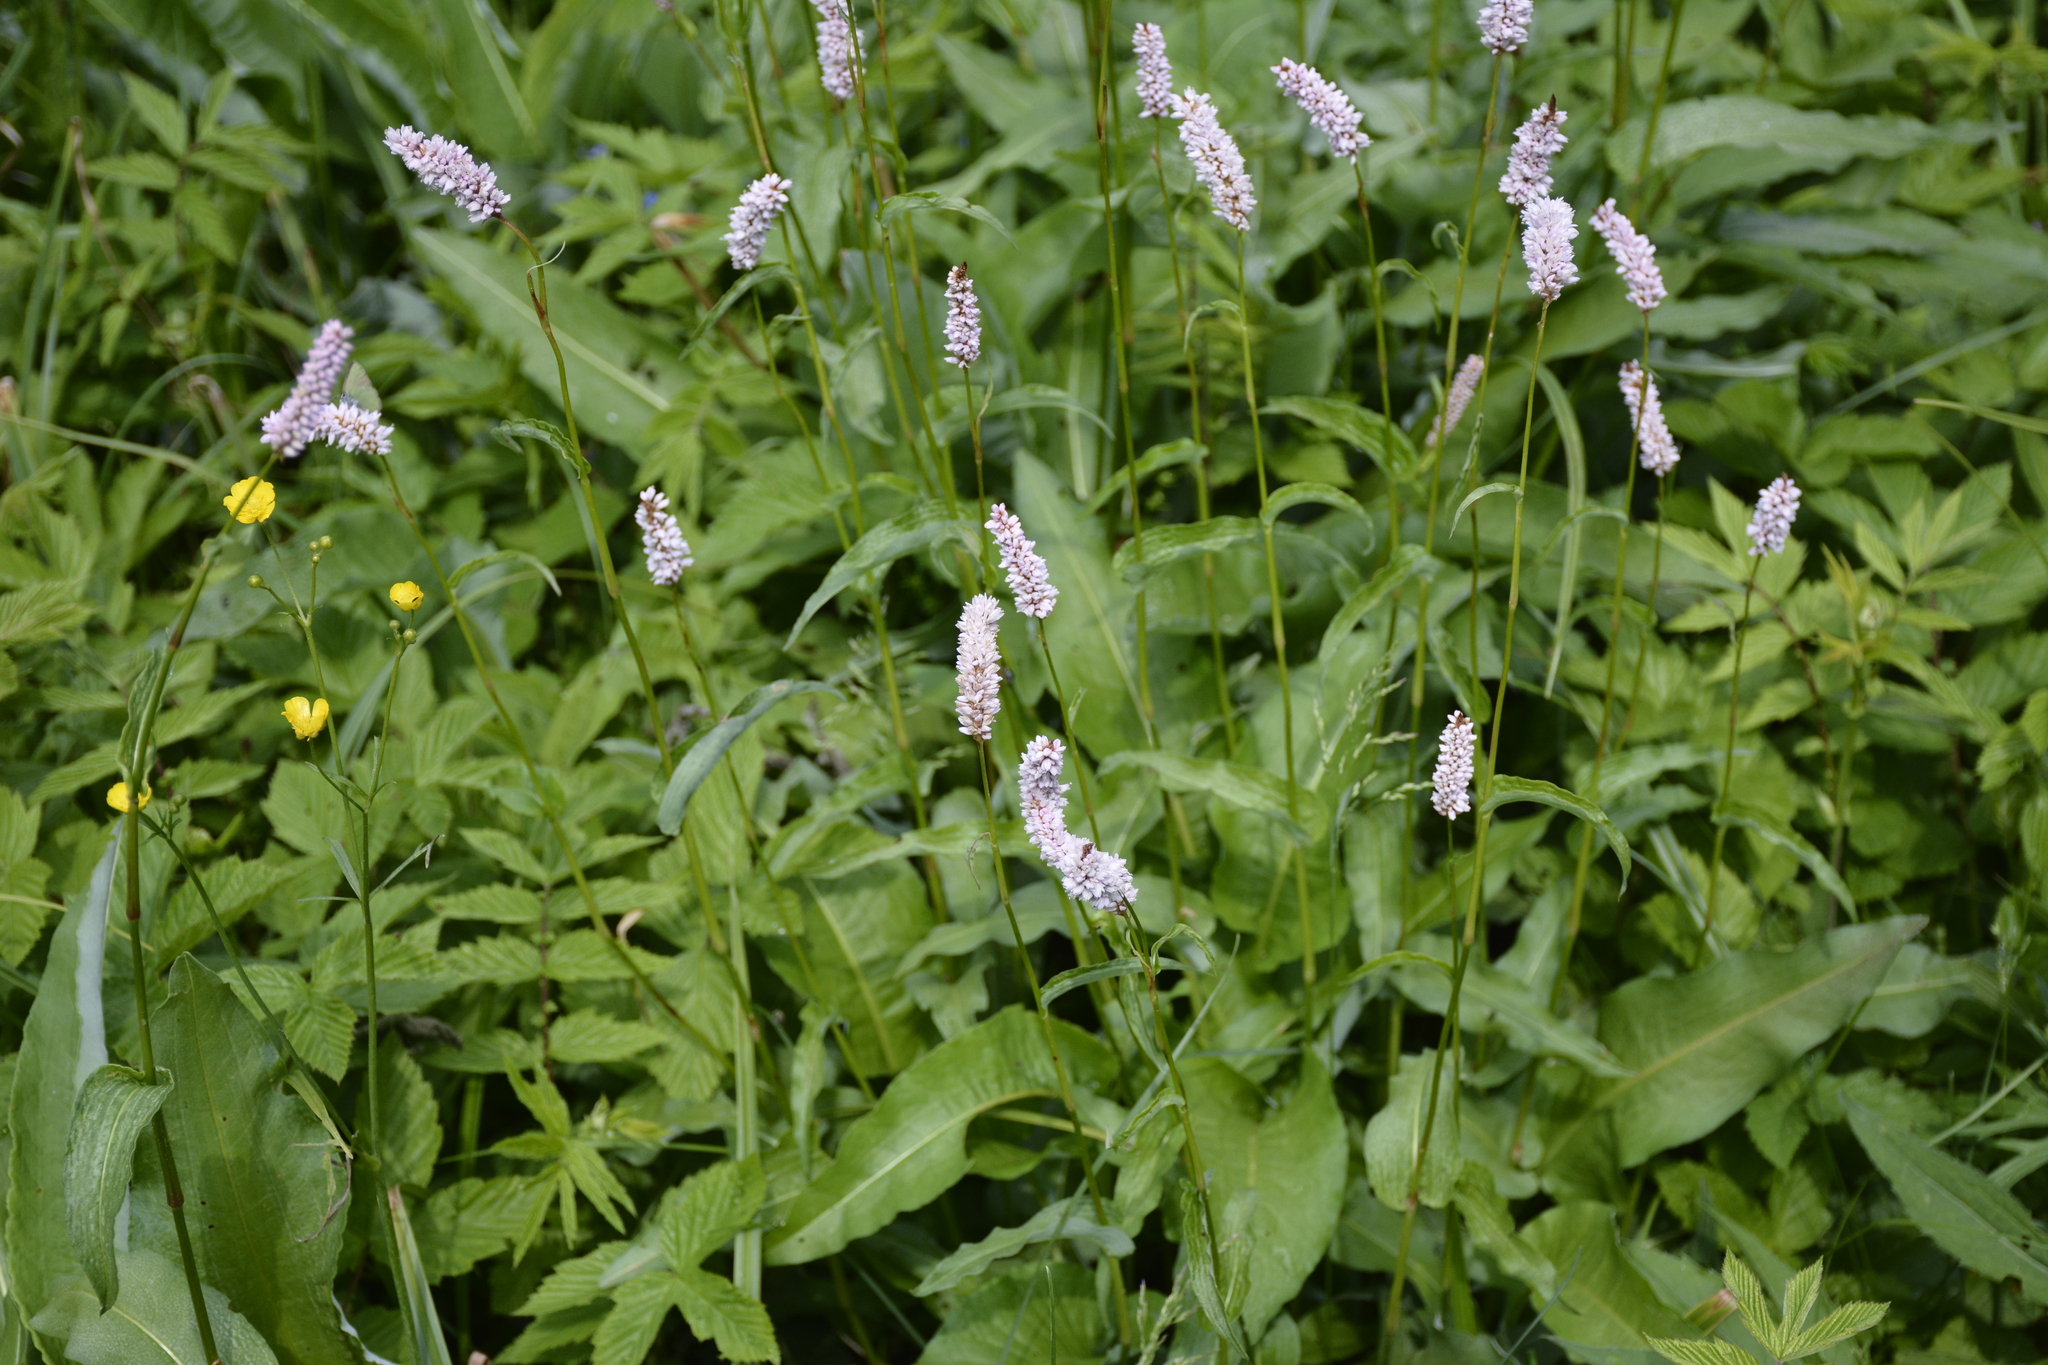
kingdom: Plantae
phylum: Tracheophyta
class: Magnoliopsida
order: Caryophyllales
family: Polygonaceae
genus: Bistorta
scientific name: Bistorta officinalis
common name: Common bistort
